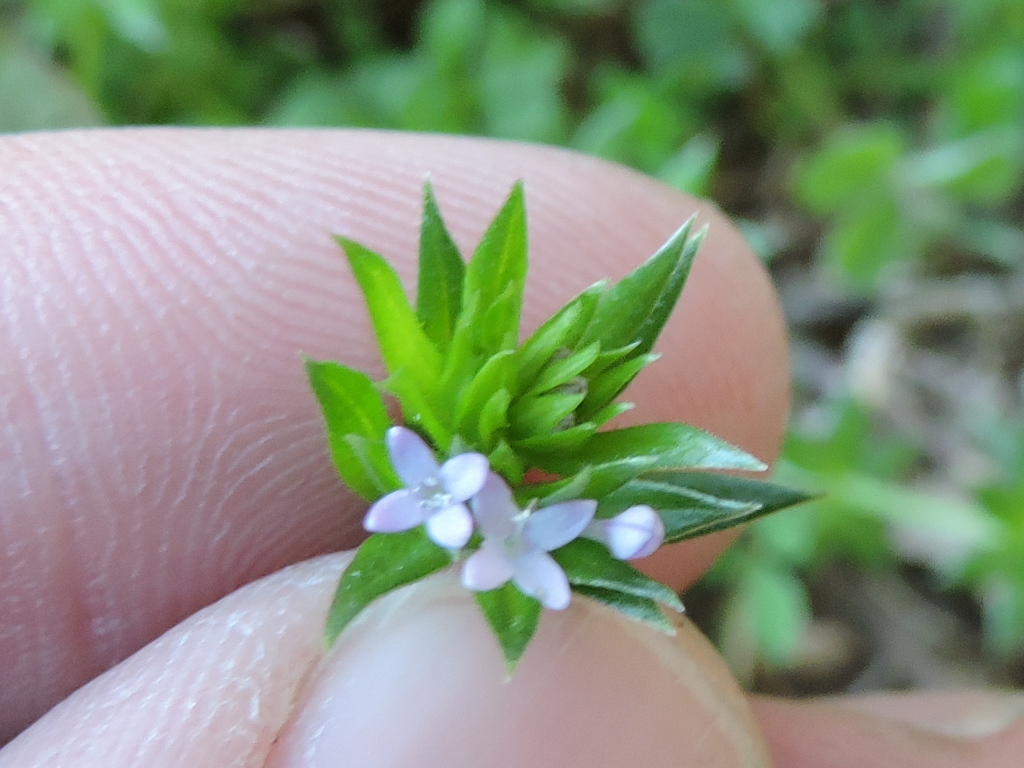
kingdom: Plantae
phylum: Tracheophyta
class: Magnoliopsida
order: Gentianales
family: Rubiaceae
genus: Sherardia
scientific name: Sherardia arvensis
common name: Field madder
